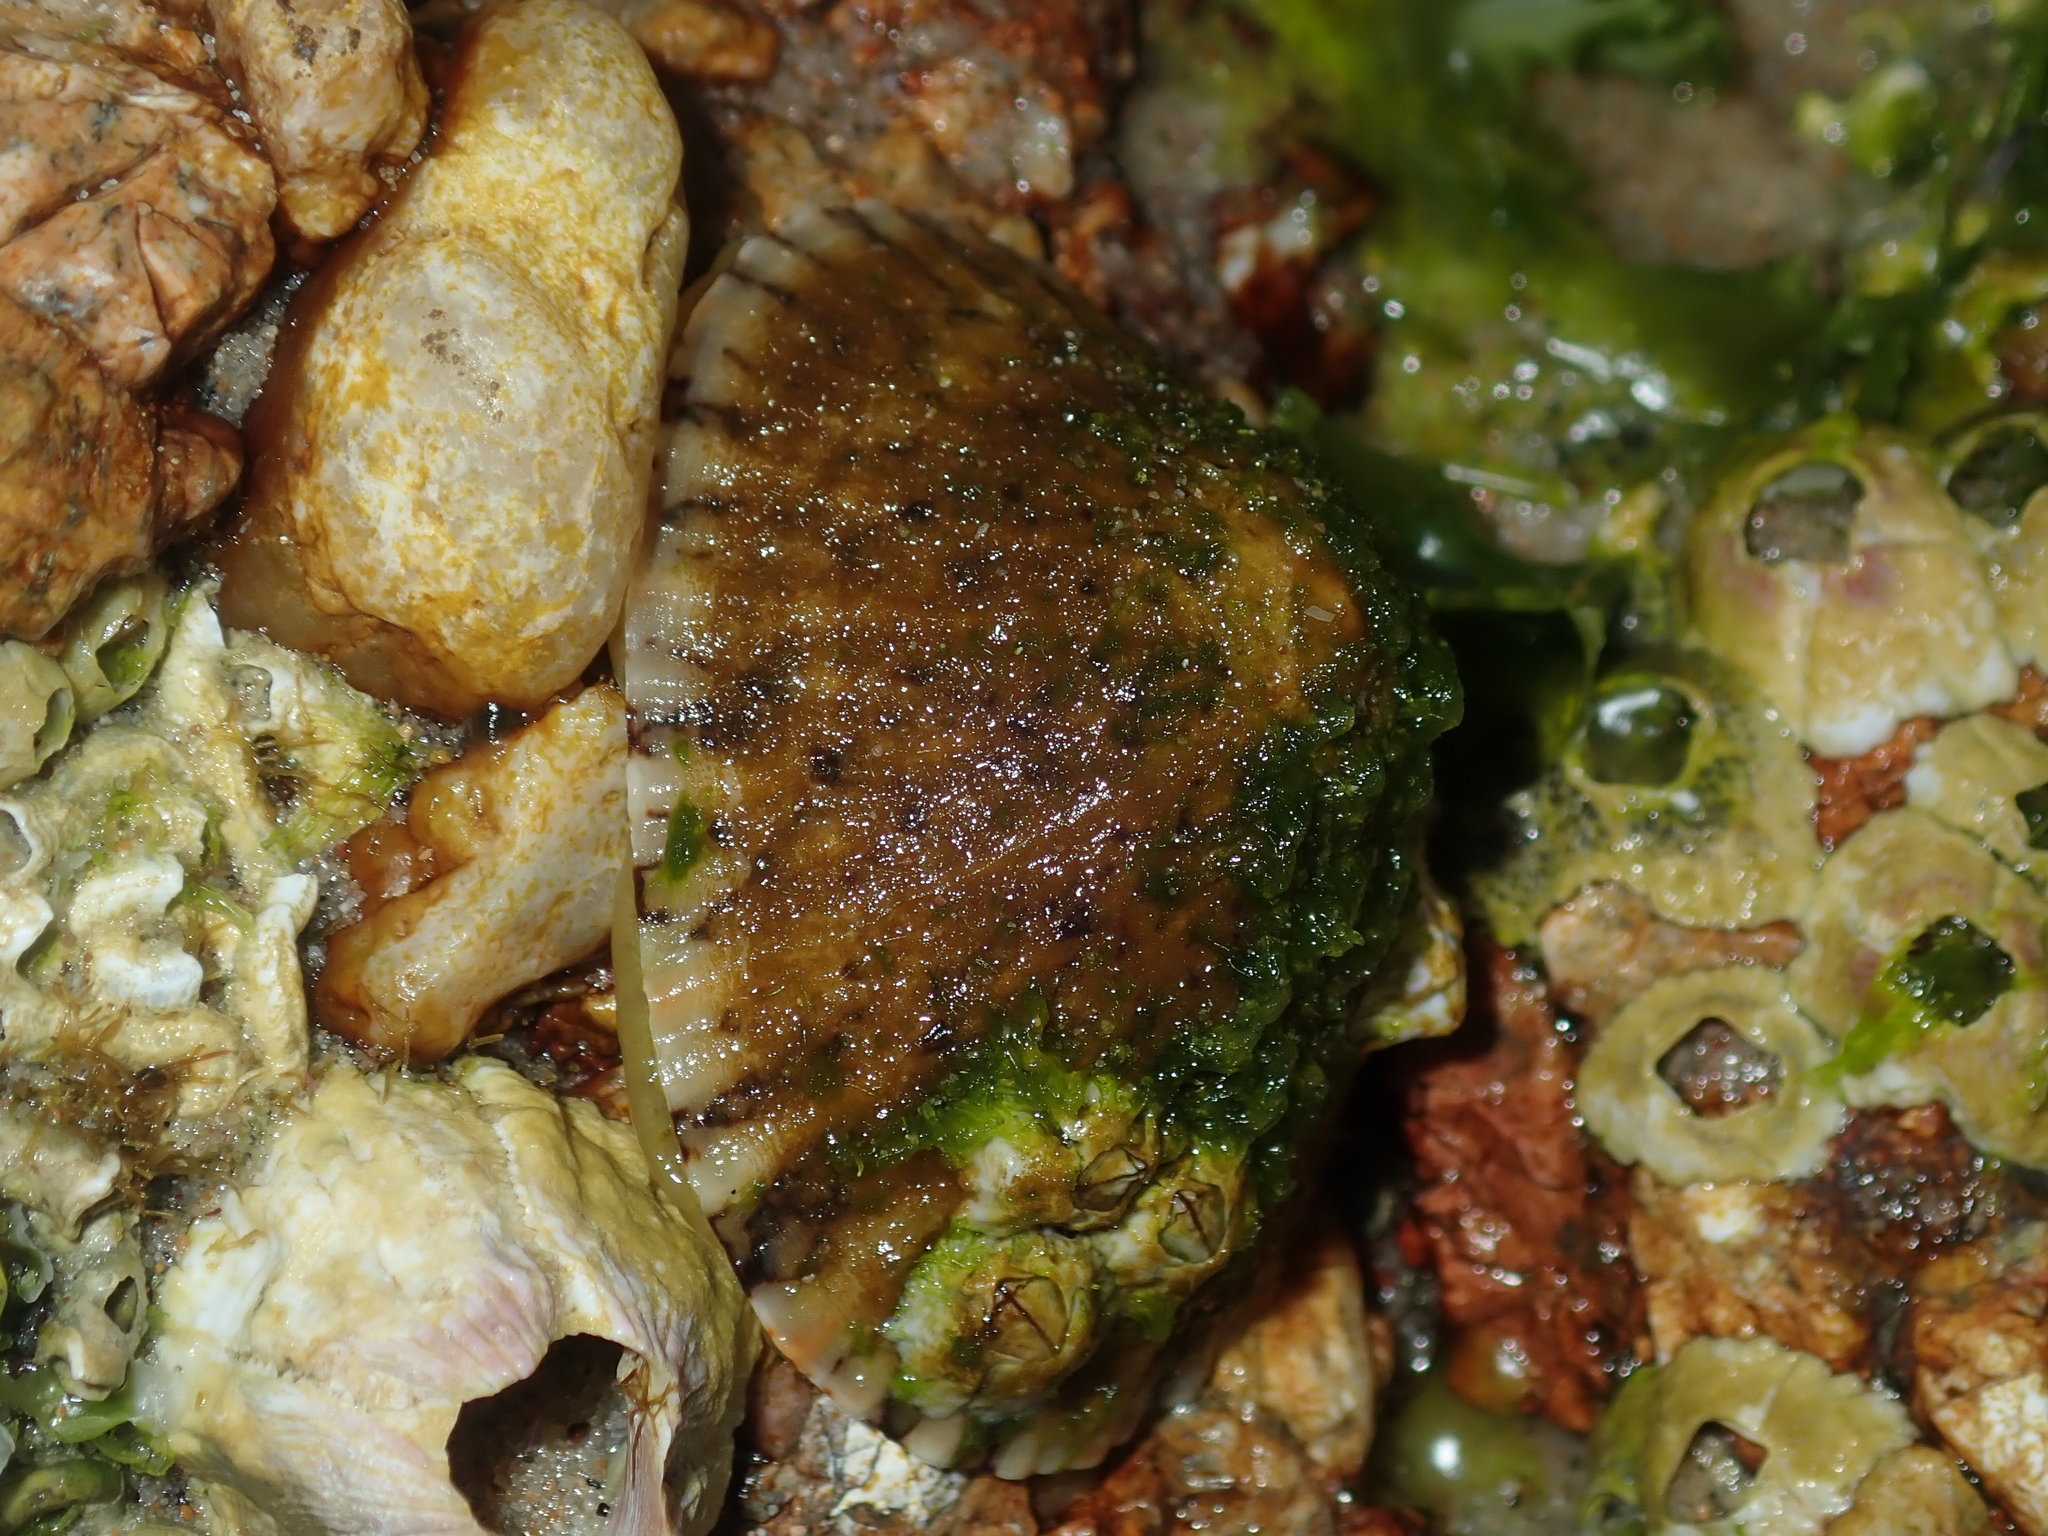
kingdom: Animalia
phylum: Mollusca
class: Gastropoda
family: Nacellidae
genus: Cellana
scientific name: Cellana tramoserica
